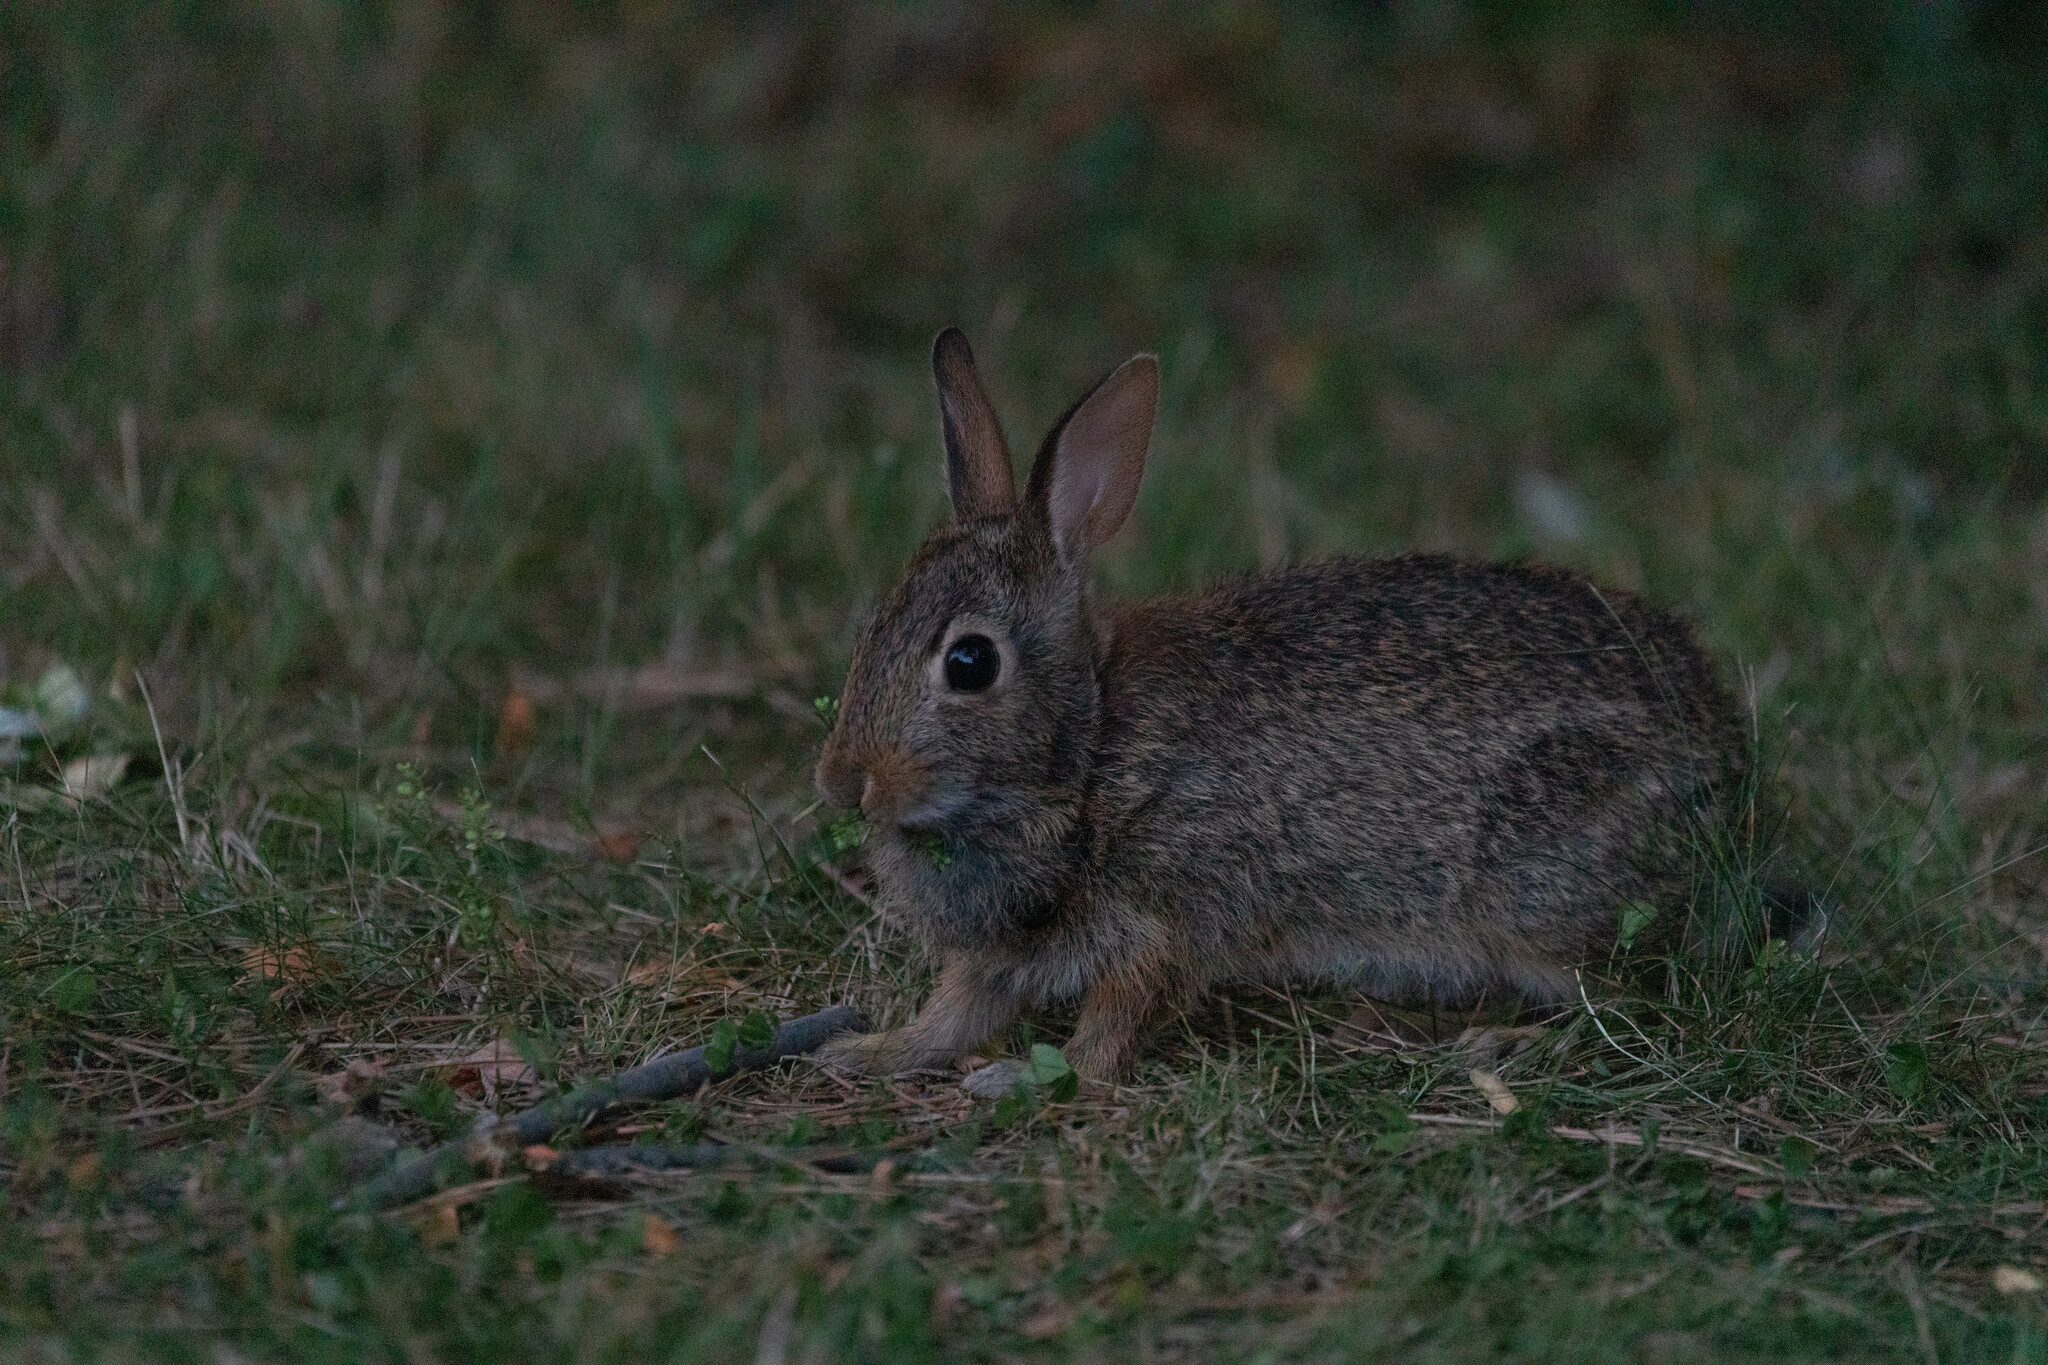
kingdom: Animalia
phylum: Chordata
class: Mammalia
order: Lagomorpha
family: Leporidae
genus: Sylvilagus
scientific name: Sylvilagus floridanus
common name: Eastern cottontail
